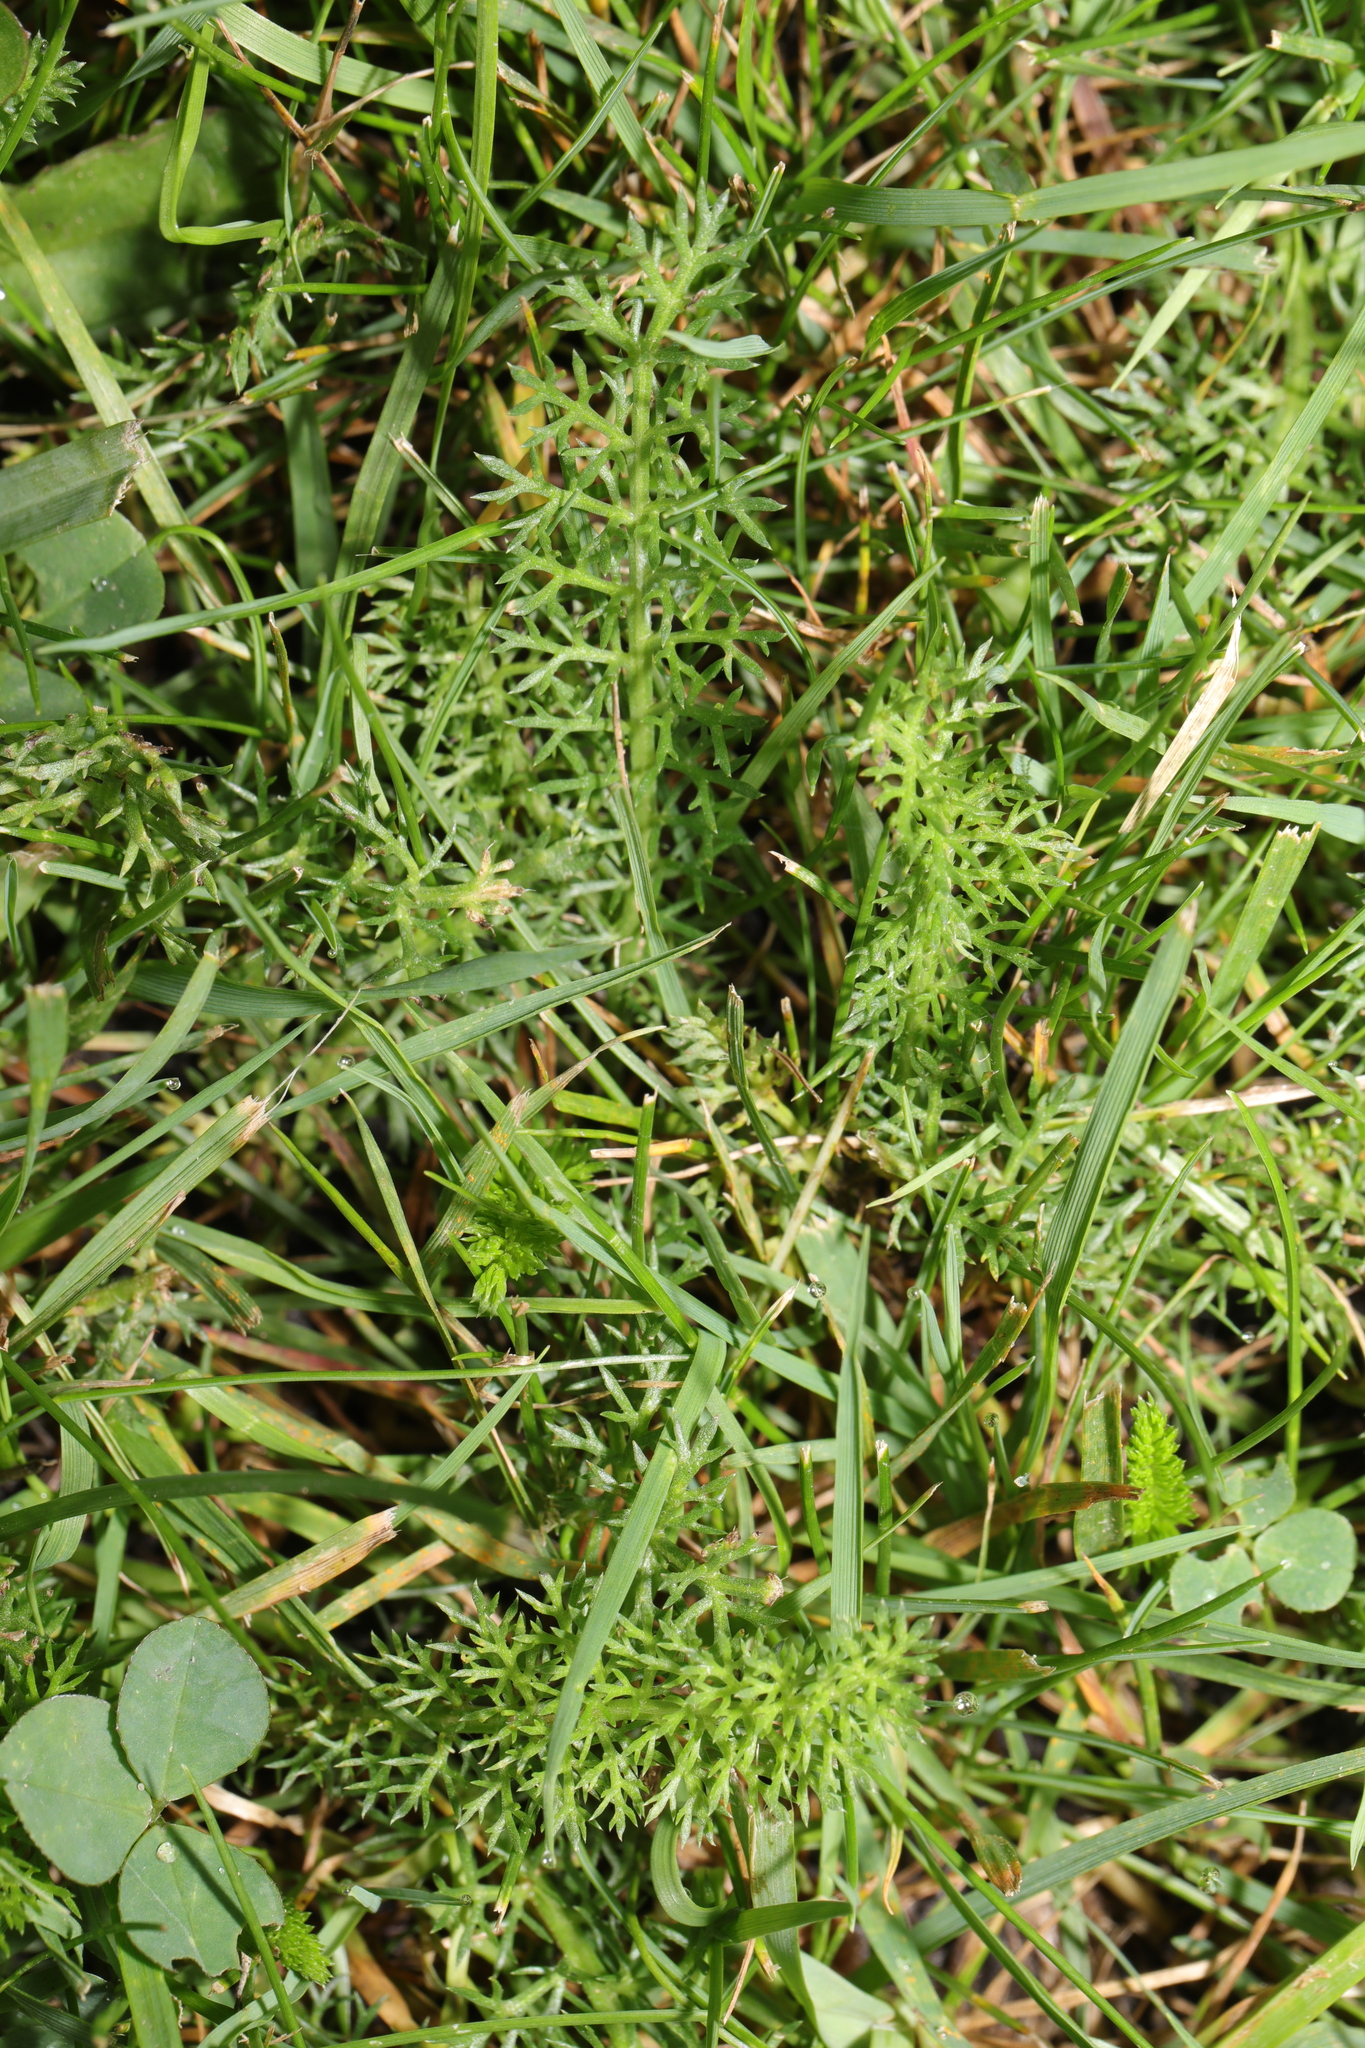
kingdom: Plantae
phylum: Tracheophyta
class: Magnoliopsida
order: Asterales
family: Asteraceae
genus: Achillea
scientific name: Achillea millefolium
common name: Yarrow
